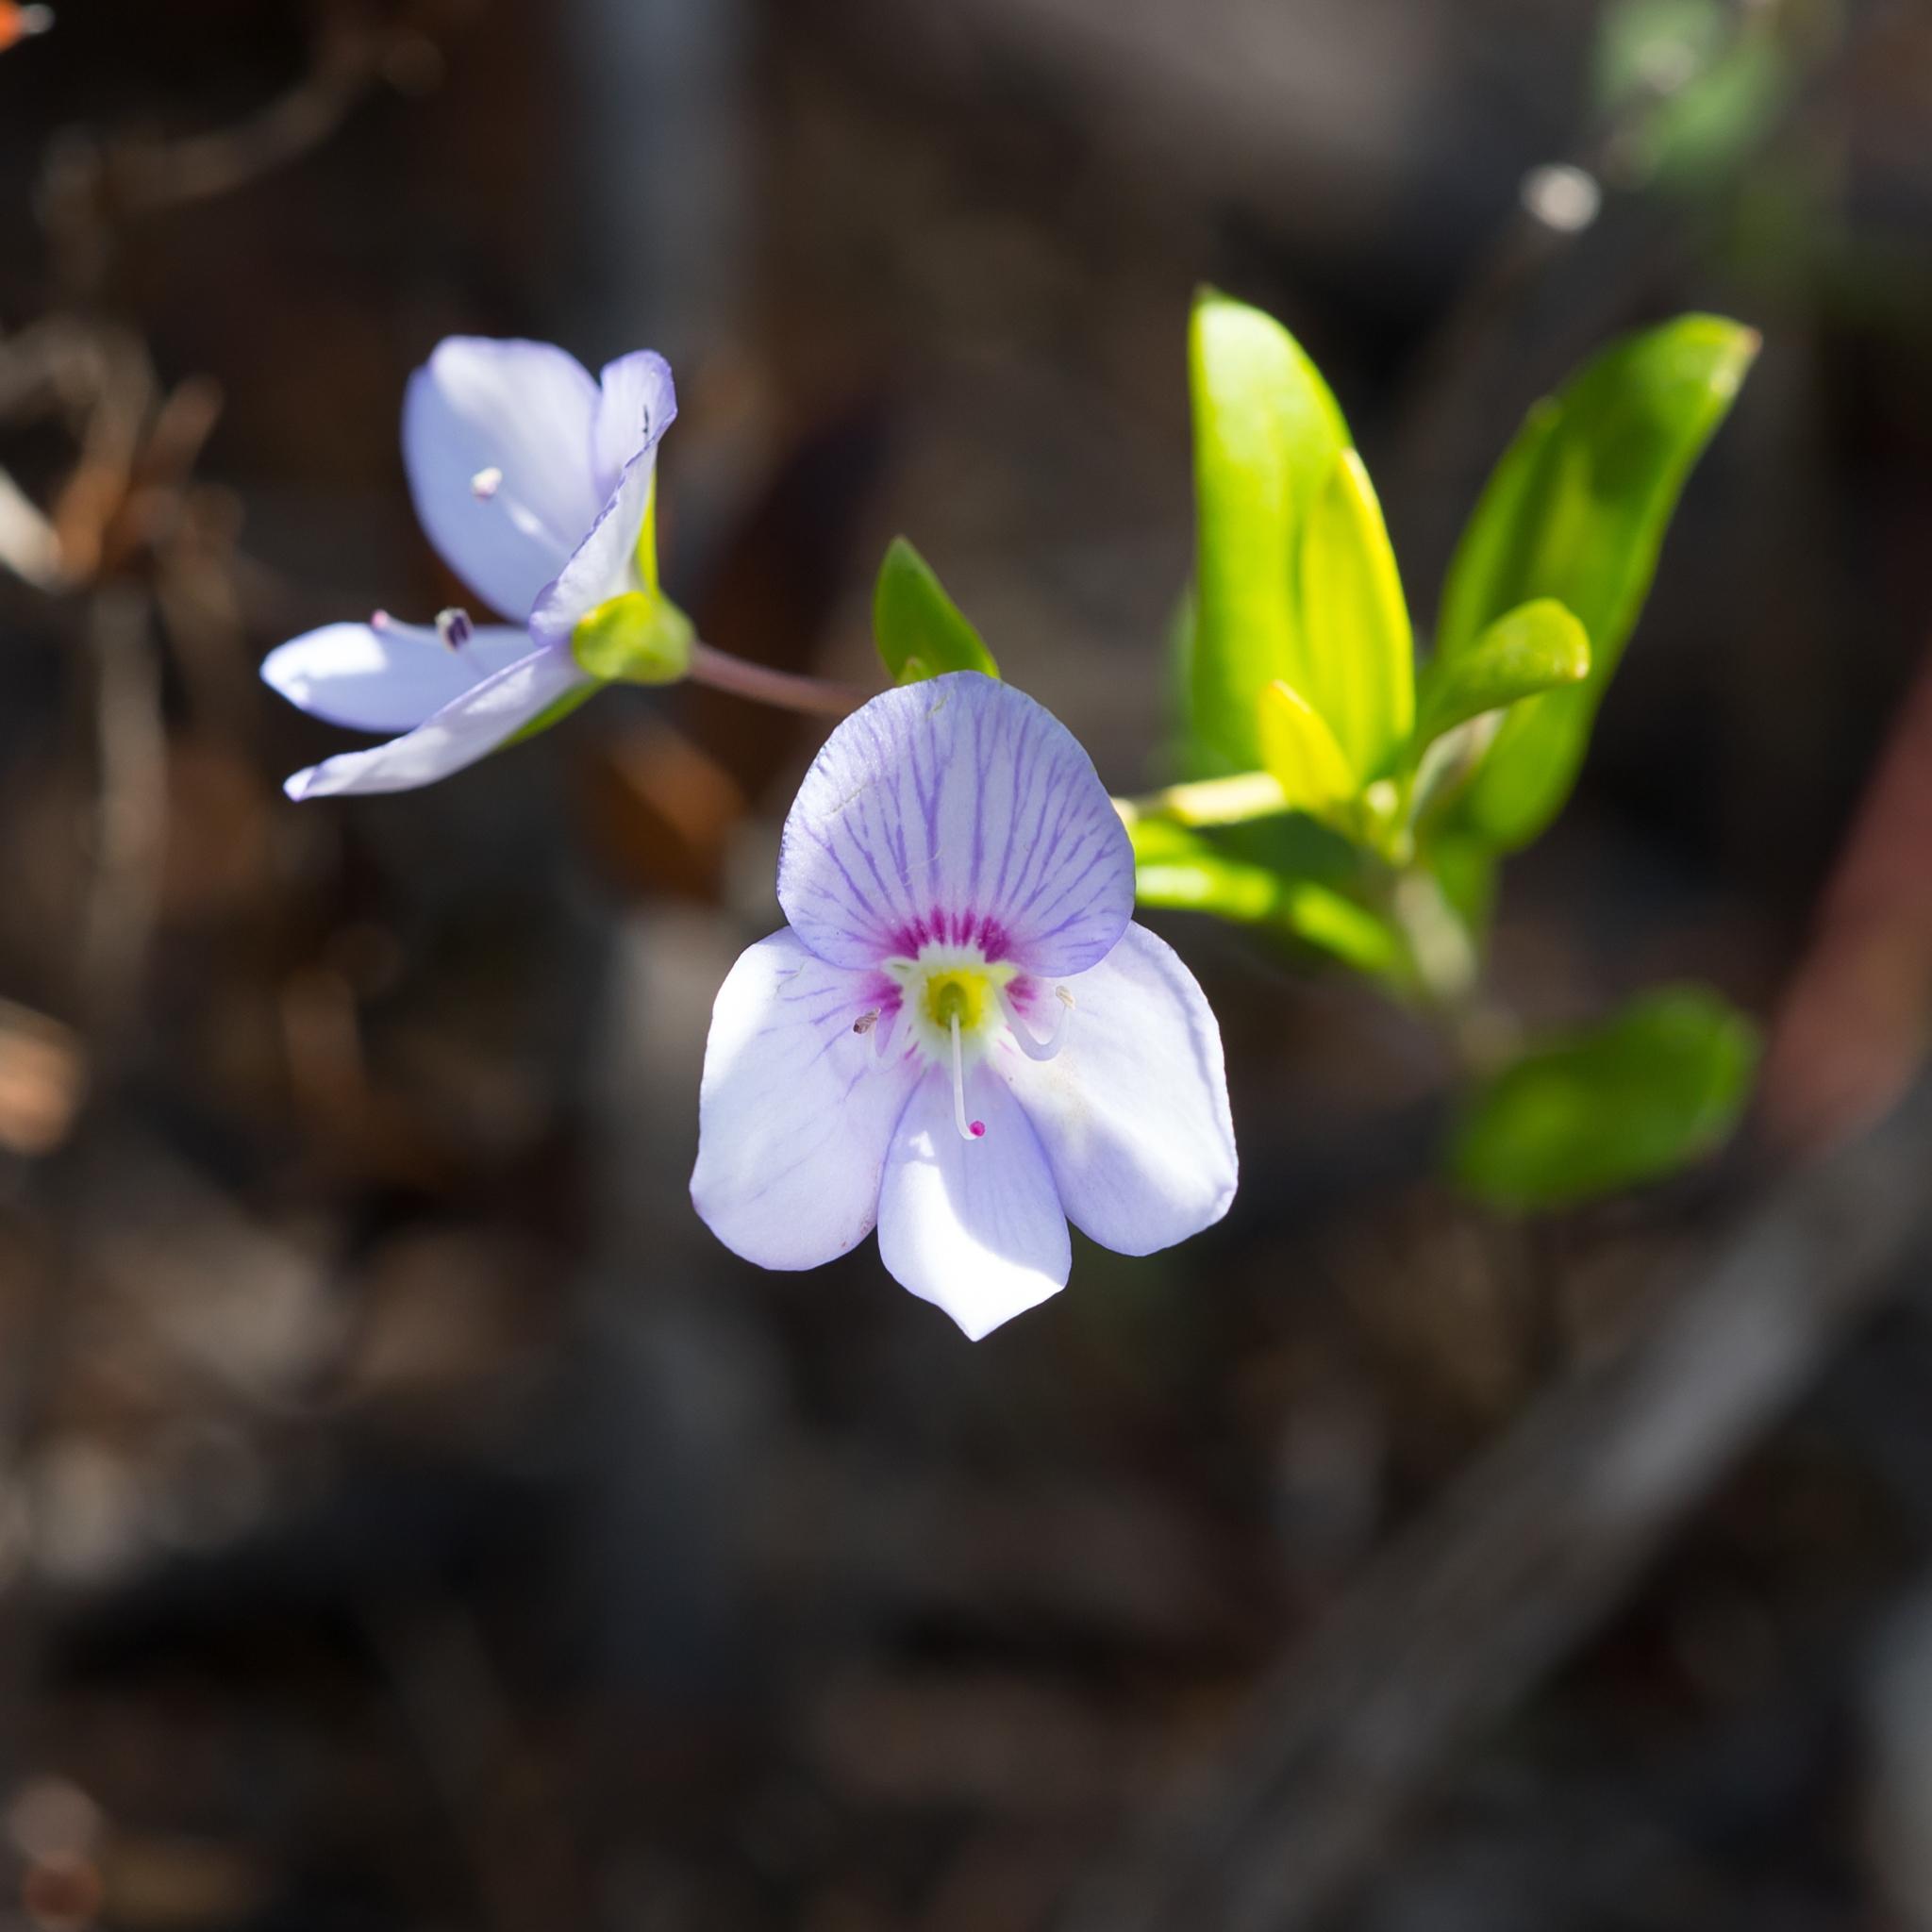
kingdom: Plantae
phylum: Tracheophyta
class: Magnoliopsida
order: Lamiales
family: Plantaginaceae
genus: Veronica
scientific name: Veronica hillebrandii
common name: Coast speedwell
